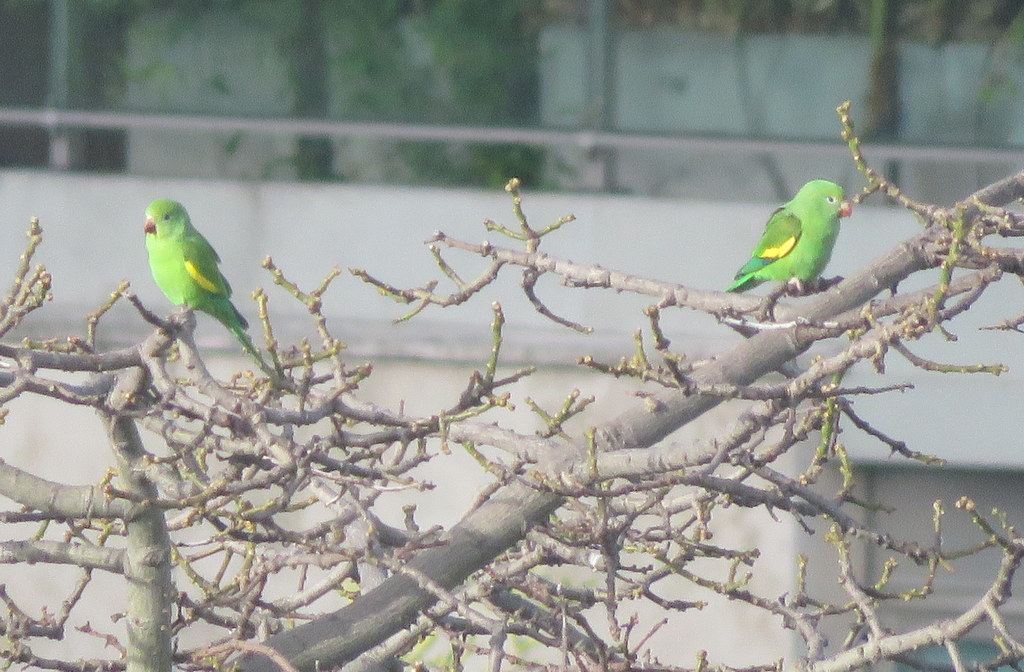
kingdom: Animalia
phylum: Chordata
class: Aves
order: Psittaciformes
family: Psittacidae
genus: Brotogeris
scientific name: Brotogeris chiriri
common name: Yellow-chevroned parakeet
